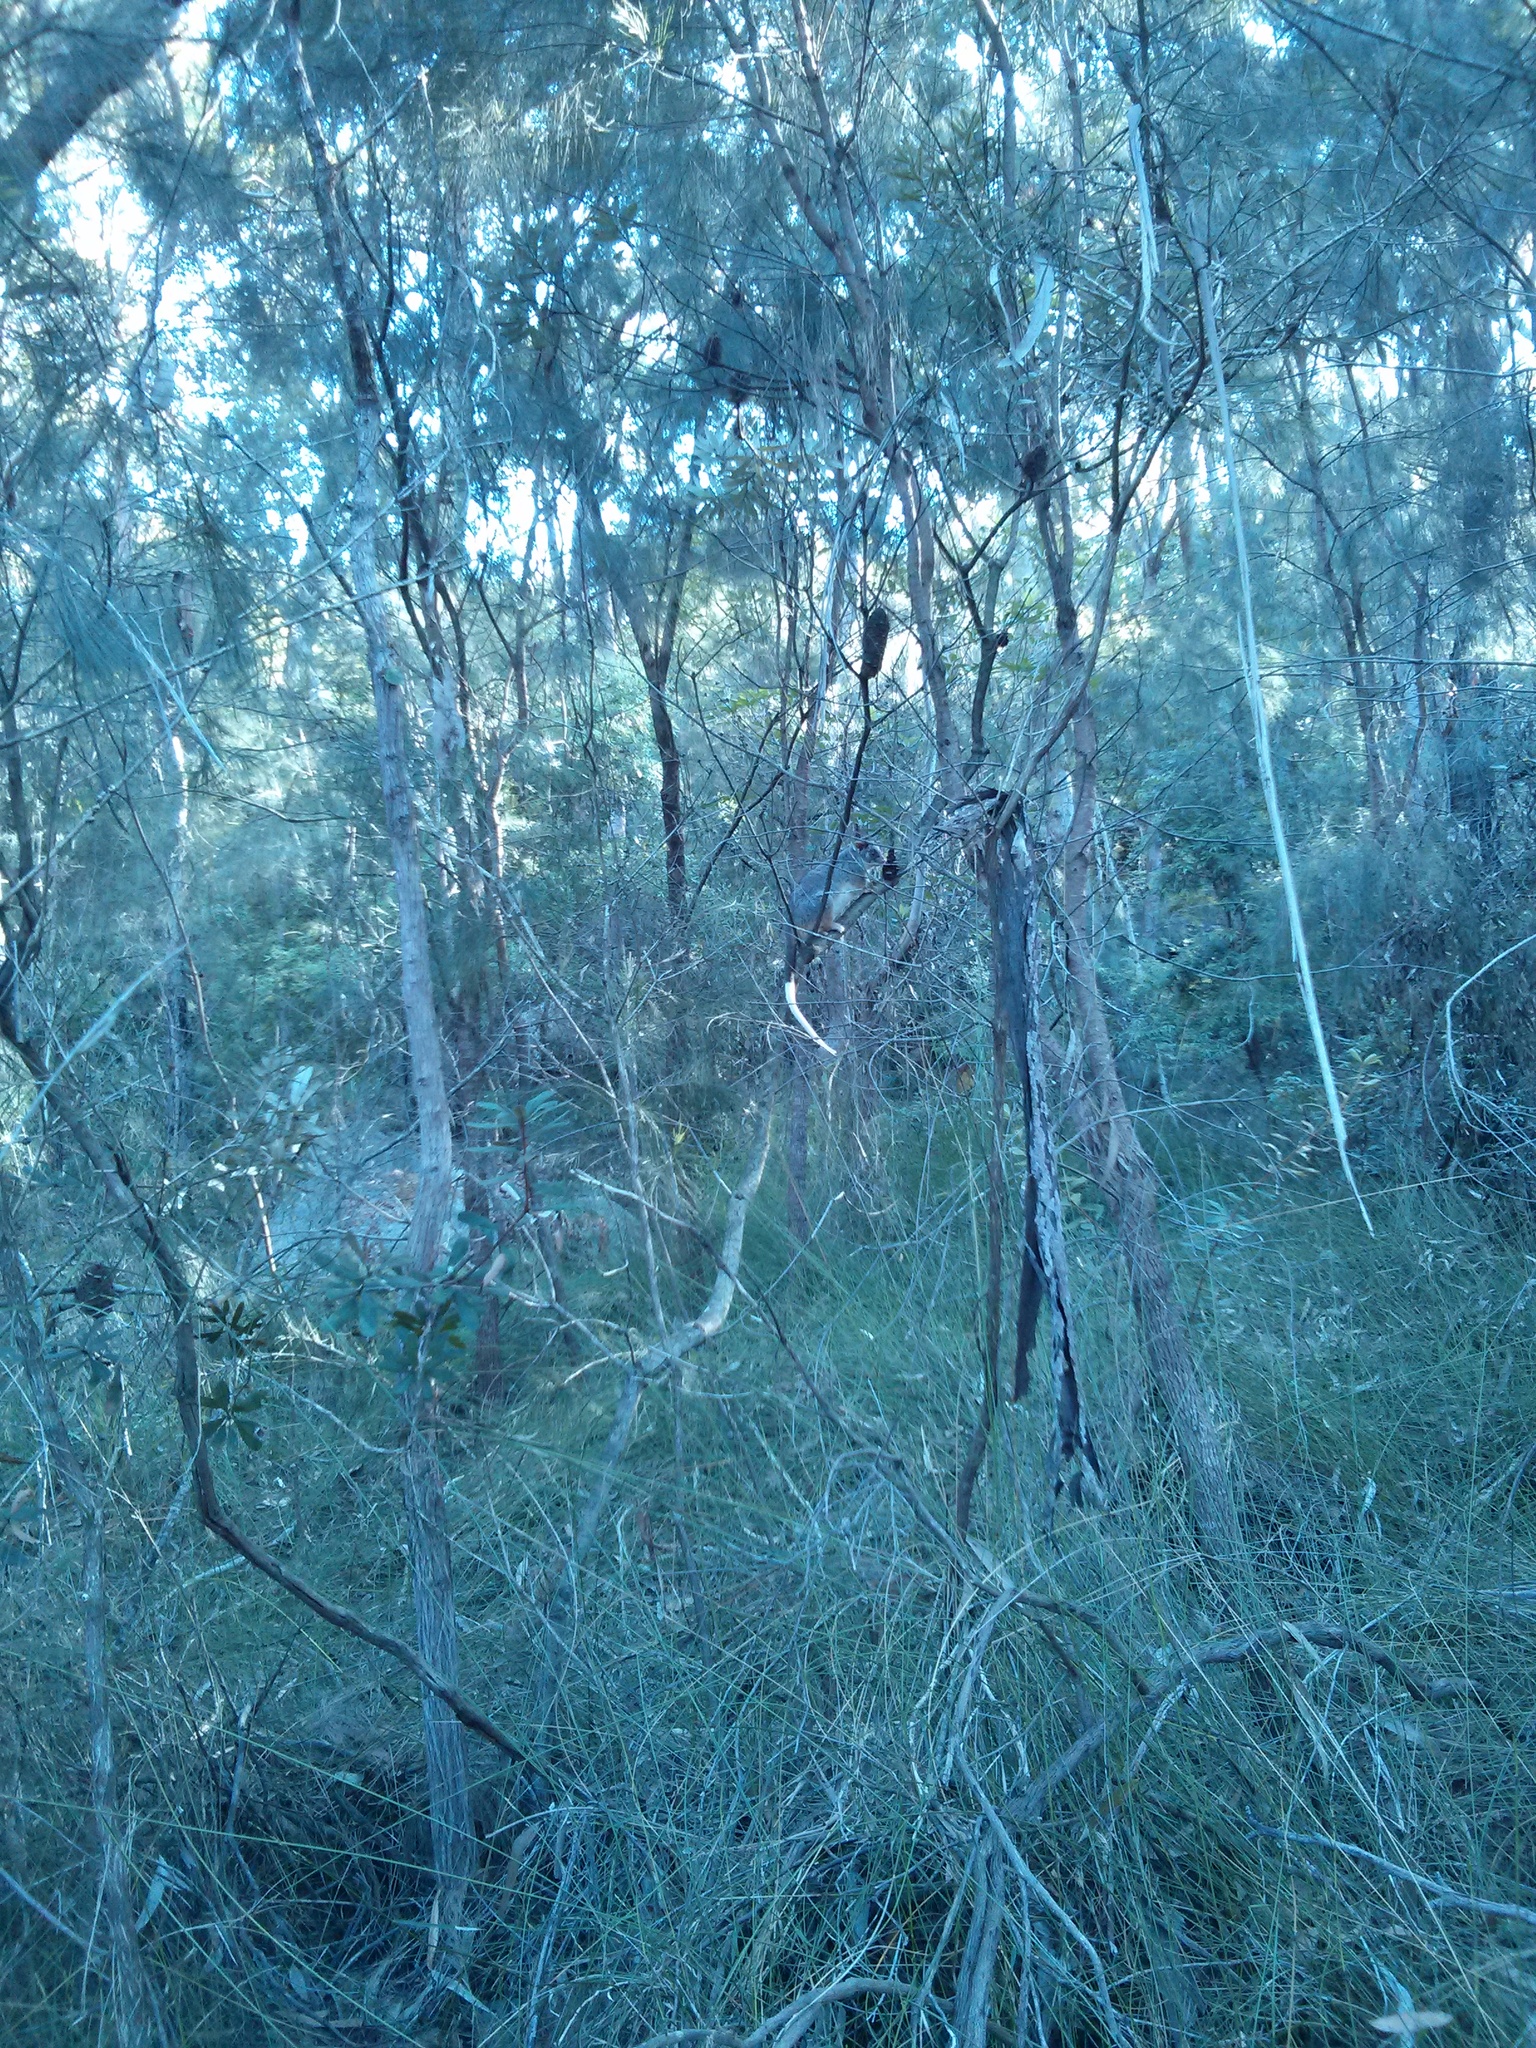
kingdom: Animalia
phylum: Chordata
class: Mammalia
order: Diprotodontia
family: Pseudocheiridae
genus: Pseudocheirus
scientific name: Pseudocheirus peregrinus
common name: Common ringtail possum
